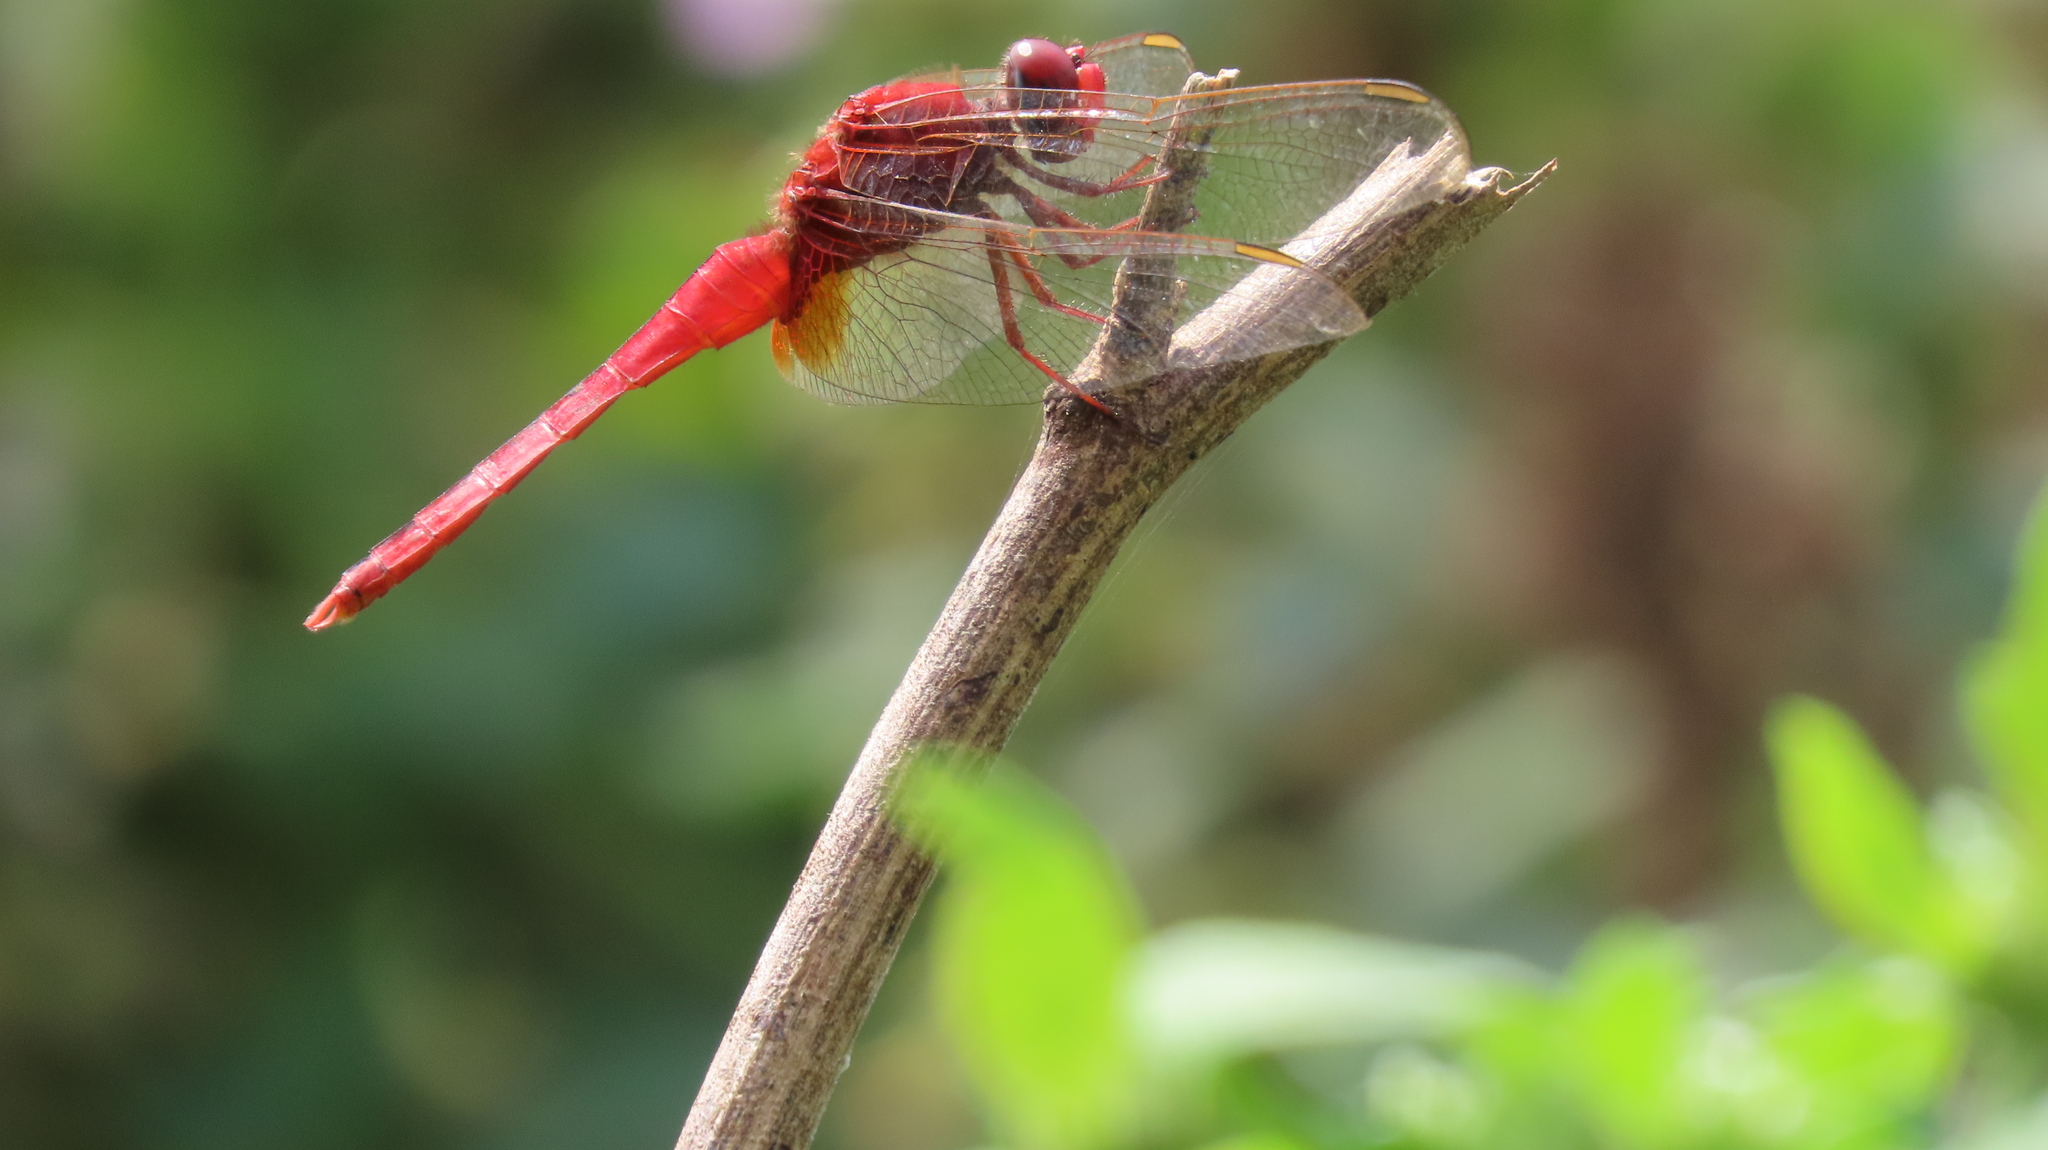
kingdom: Animalia
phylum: Arthropoda
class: Insecta
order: Odonata
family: Libellulidae
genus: Crocothemis
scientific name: Crocothemis servilia
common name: Scarlet skimmer
